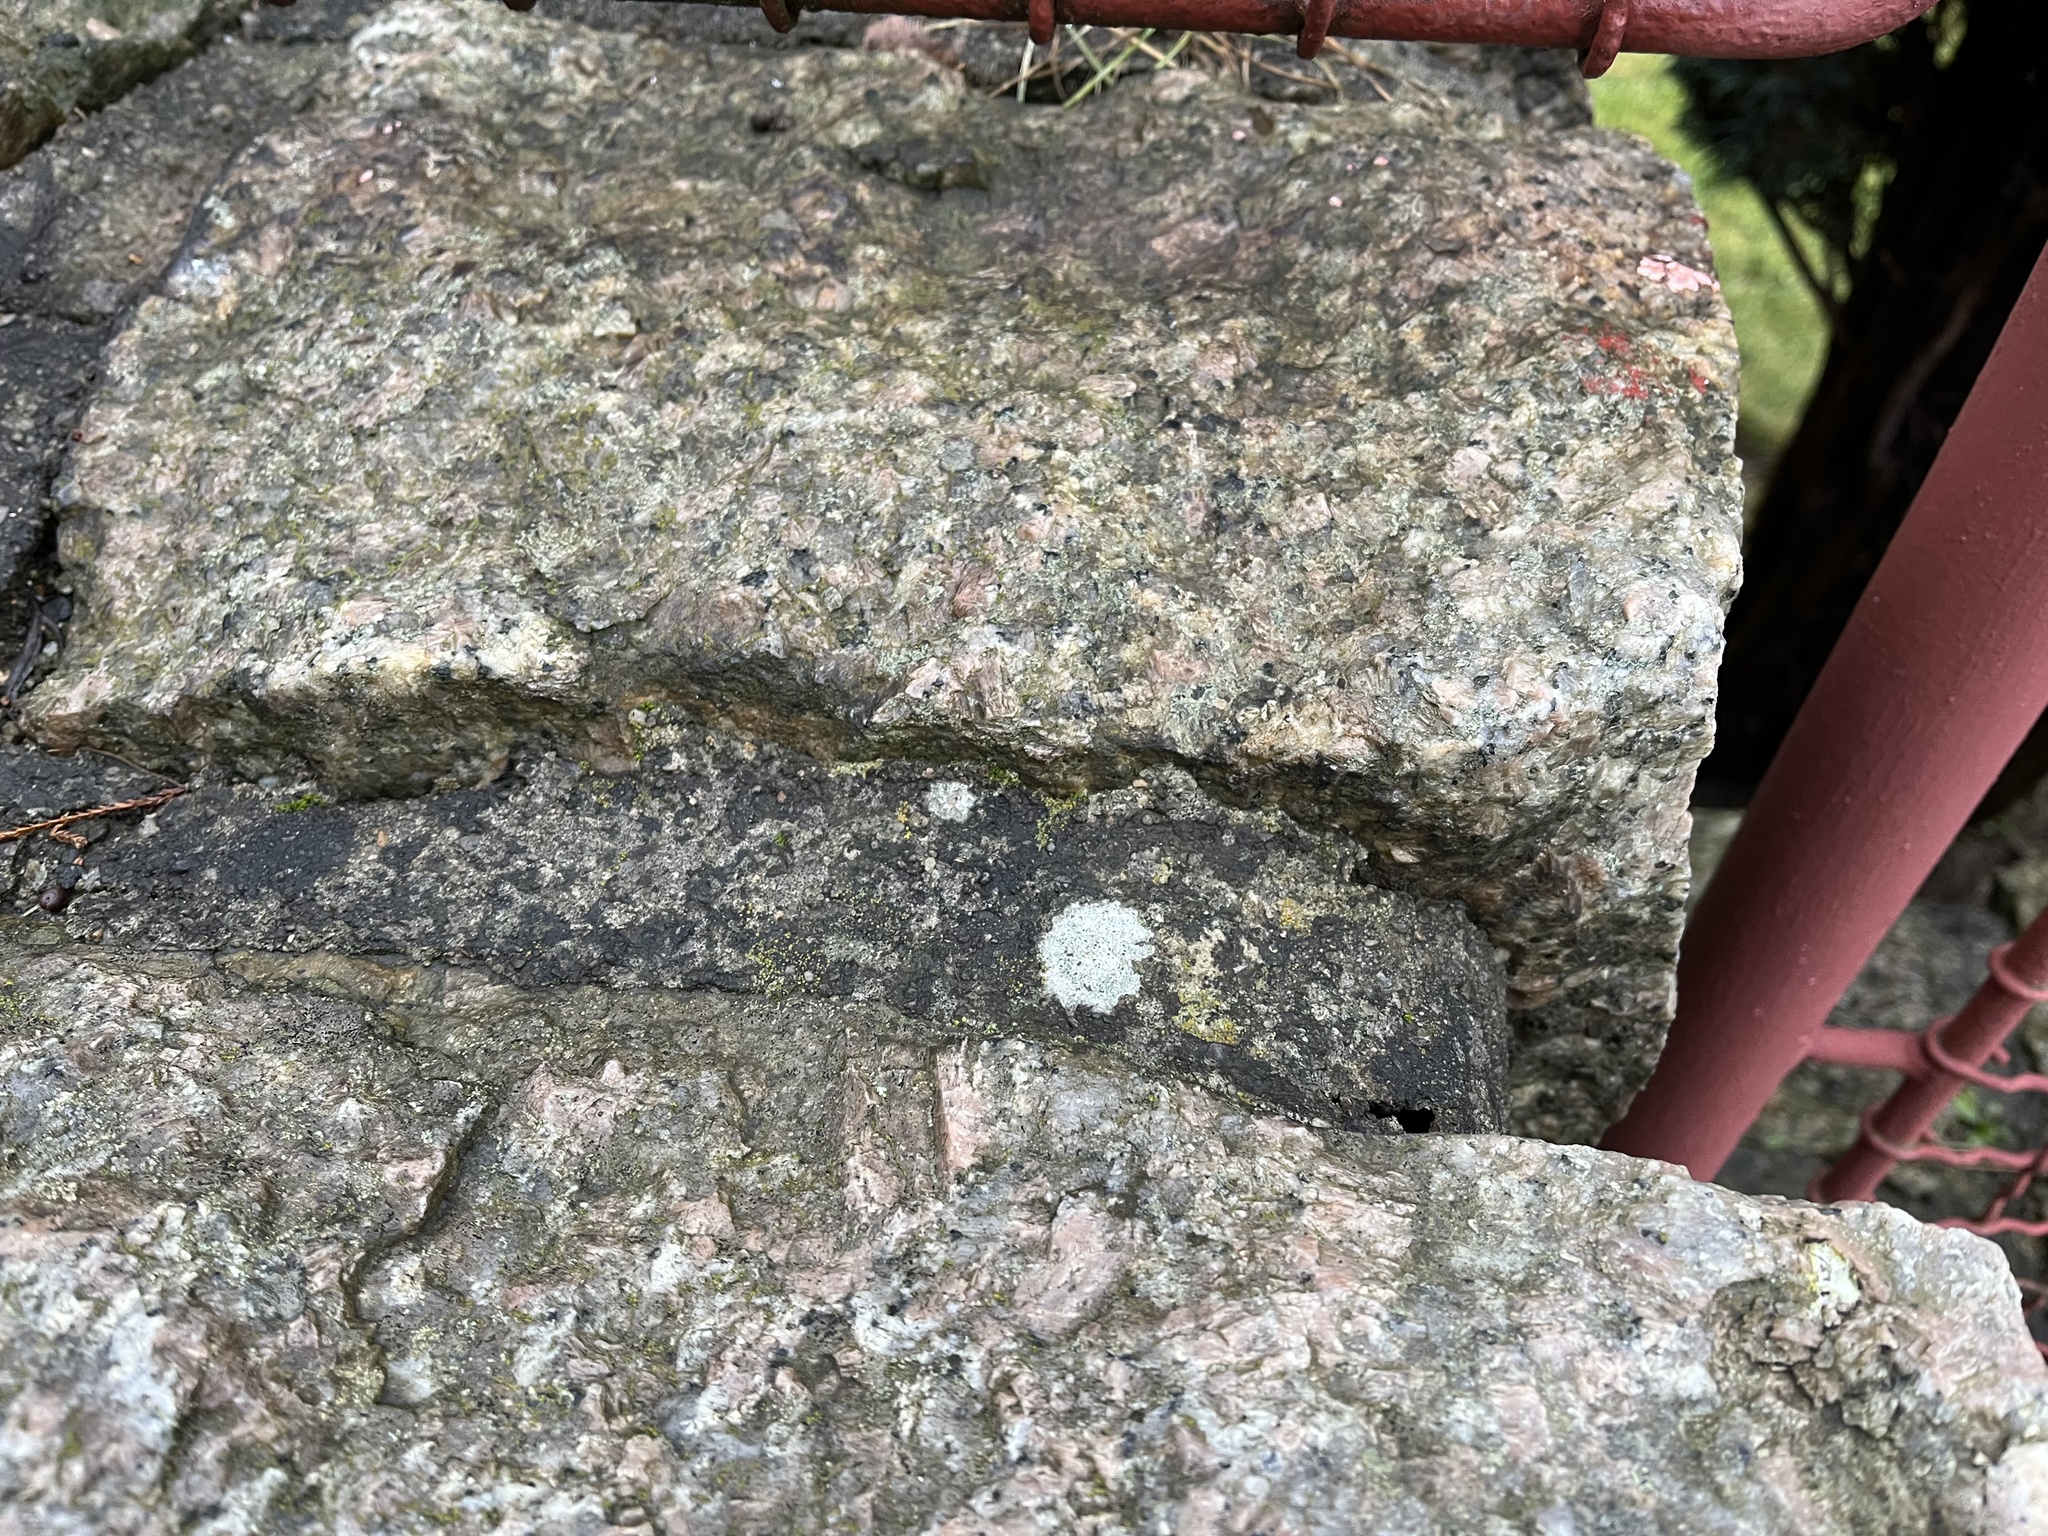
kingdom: Fungi
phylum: Ascomycota
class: Lecanoromycetes
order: Pertusariales
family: Megasporaceae
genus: Circinaria
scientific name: Circinaria contorta
